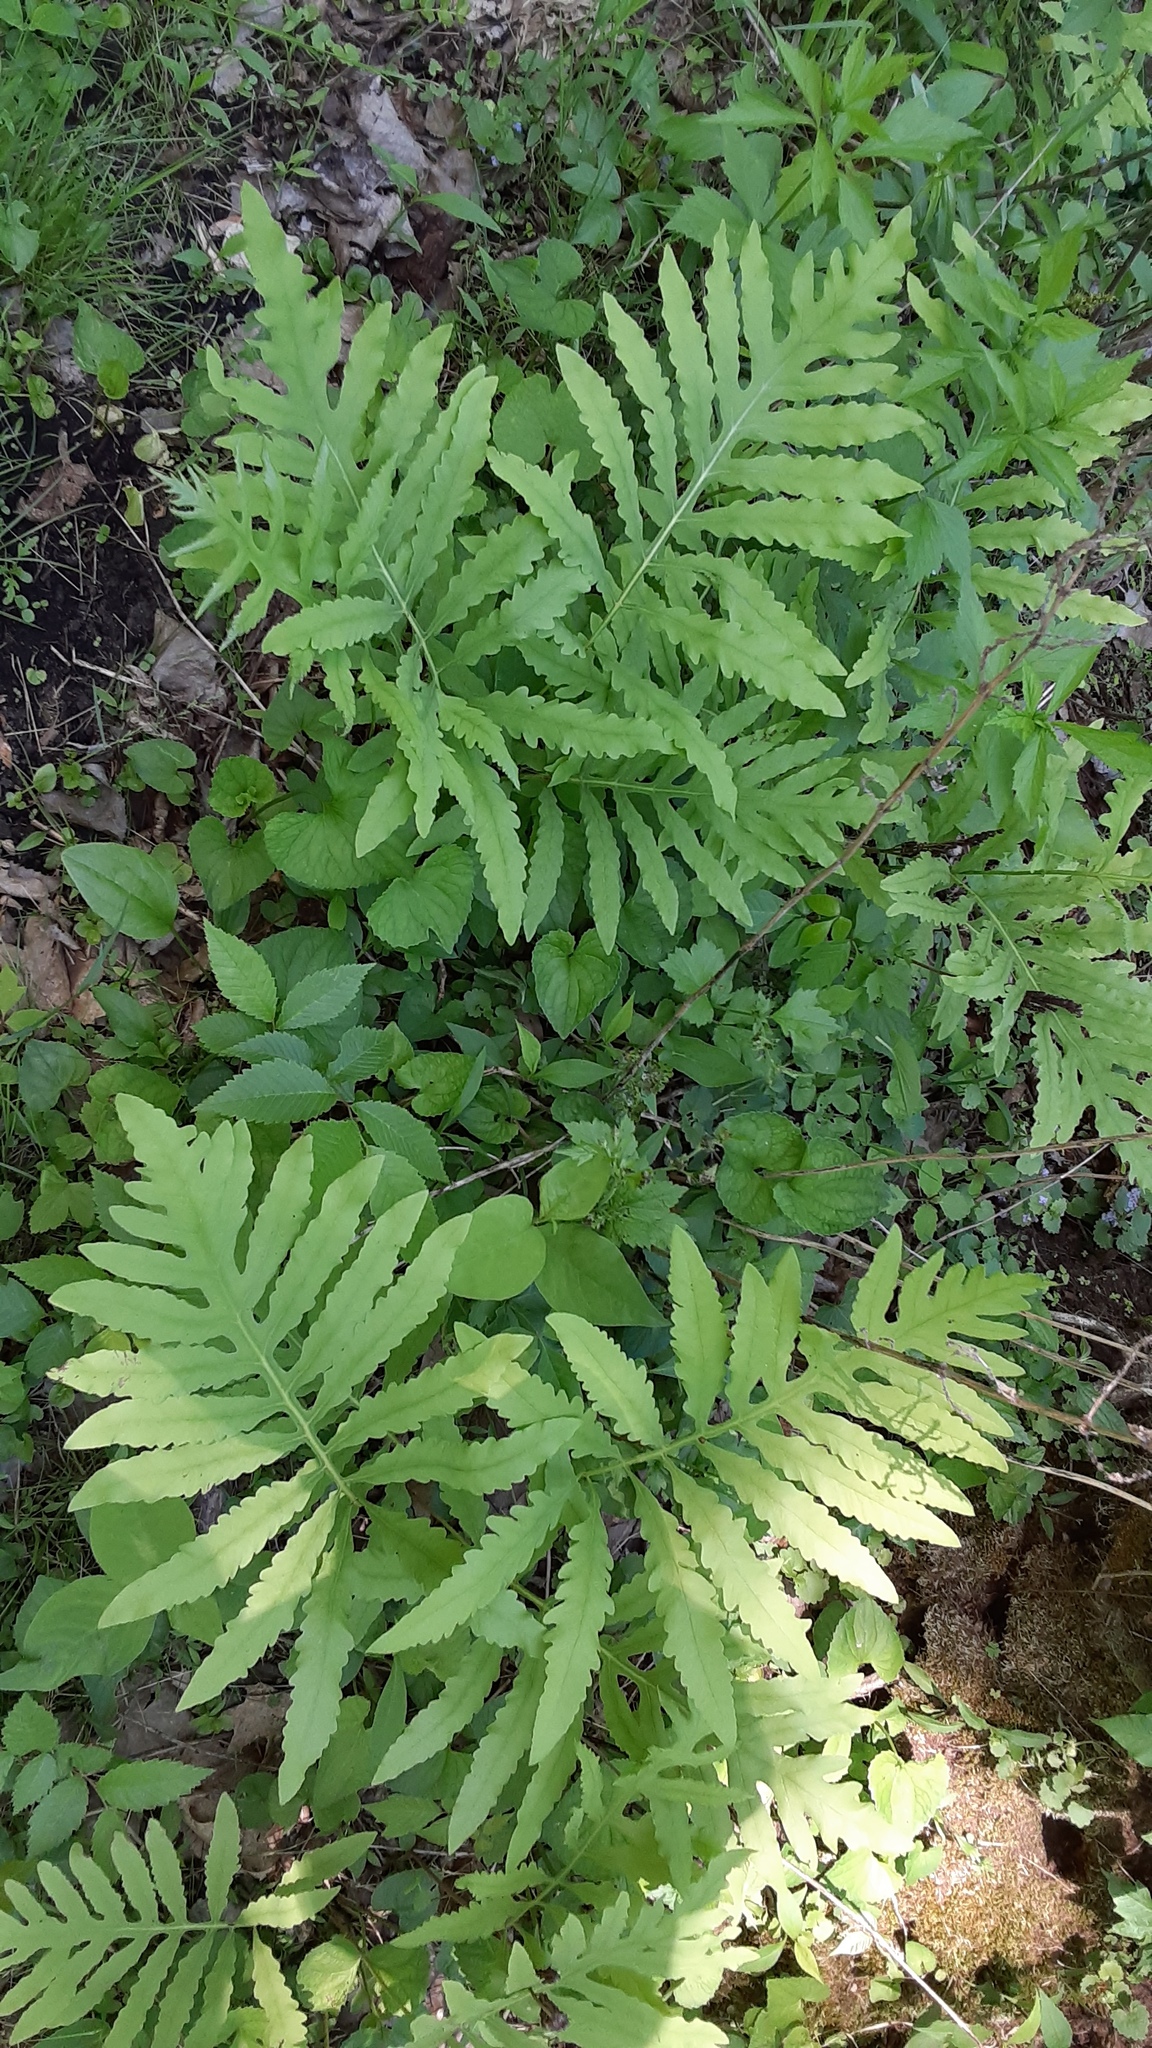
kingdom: Plantae
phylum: Tracheophyta
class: Polypodiopsida
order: Polypodiales
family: Onocleaceae
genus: Onoclea
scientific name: Onoclea sensibilis
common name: Sensitive fern
